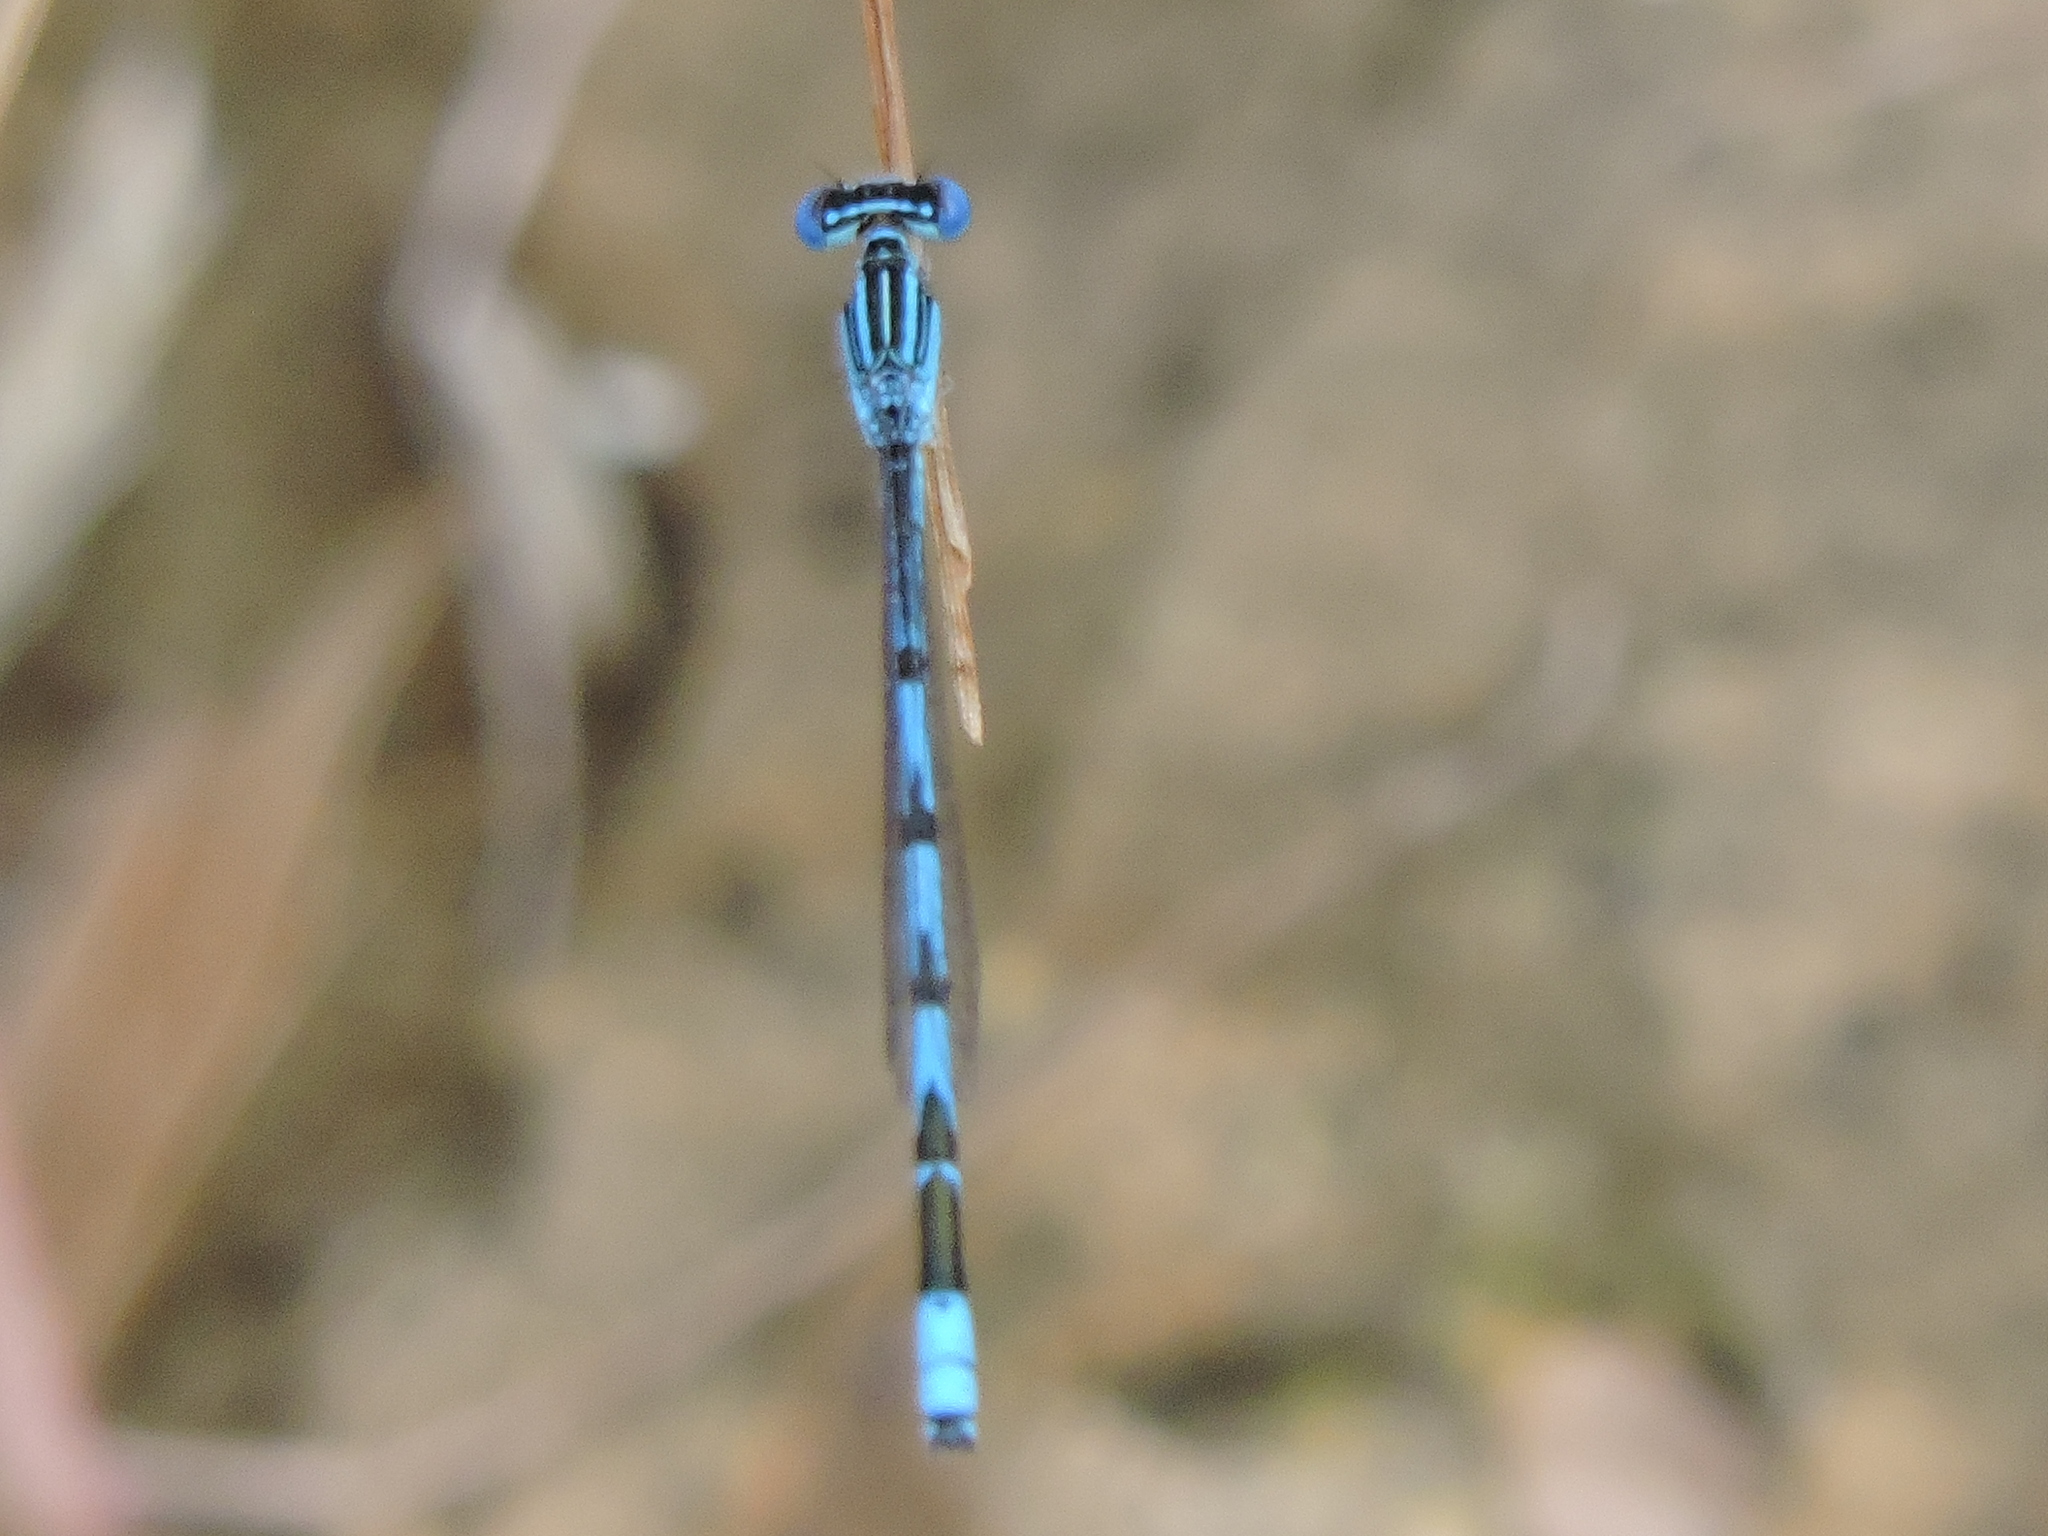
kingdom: Animalia
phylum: Arthropoda
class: Insecta
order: Odonata
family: Coenagrionidae
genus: Enallagma
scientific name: Enallagma basidens
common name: Double-striped bluet
